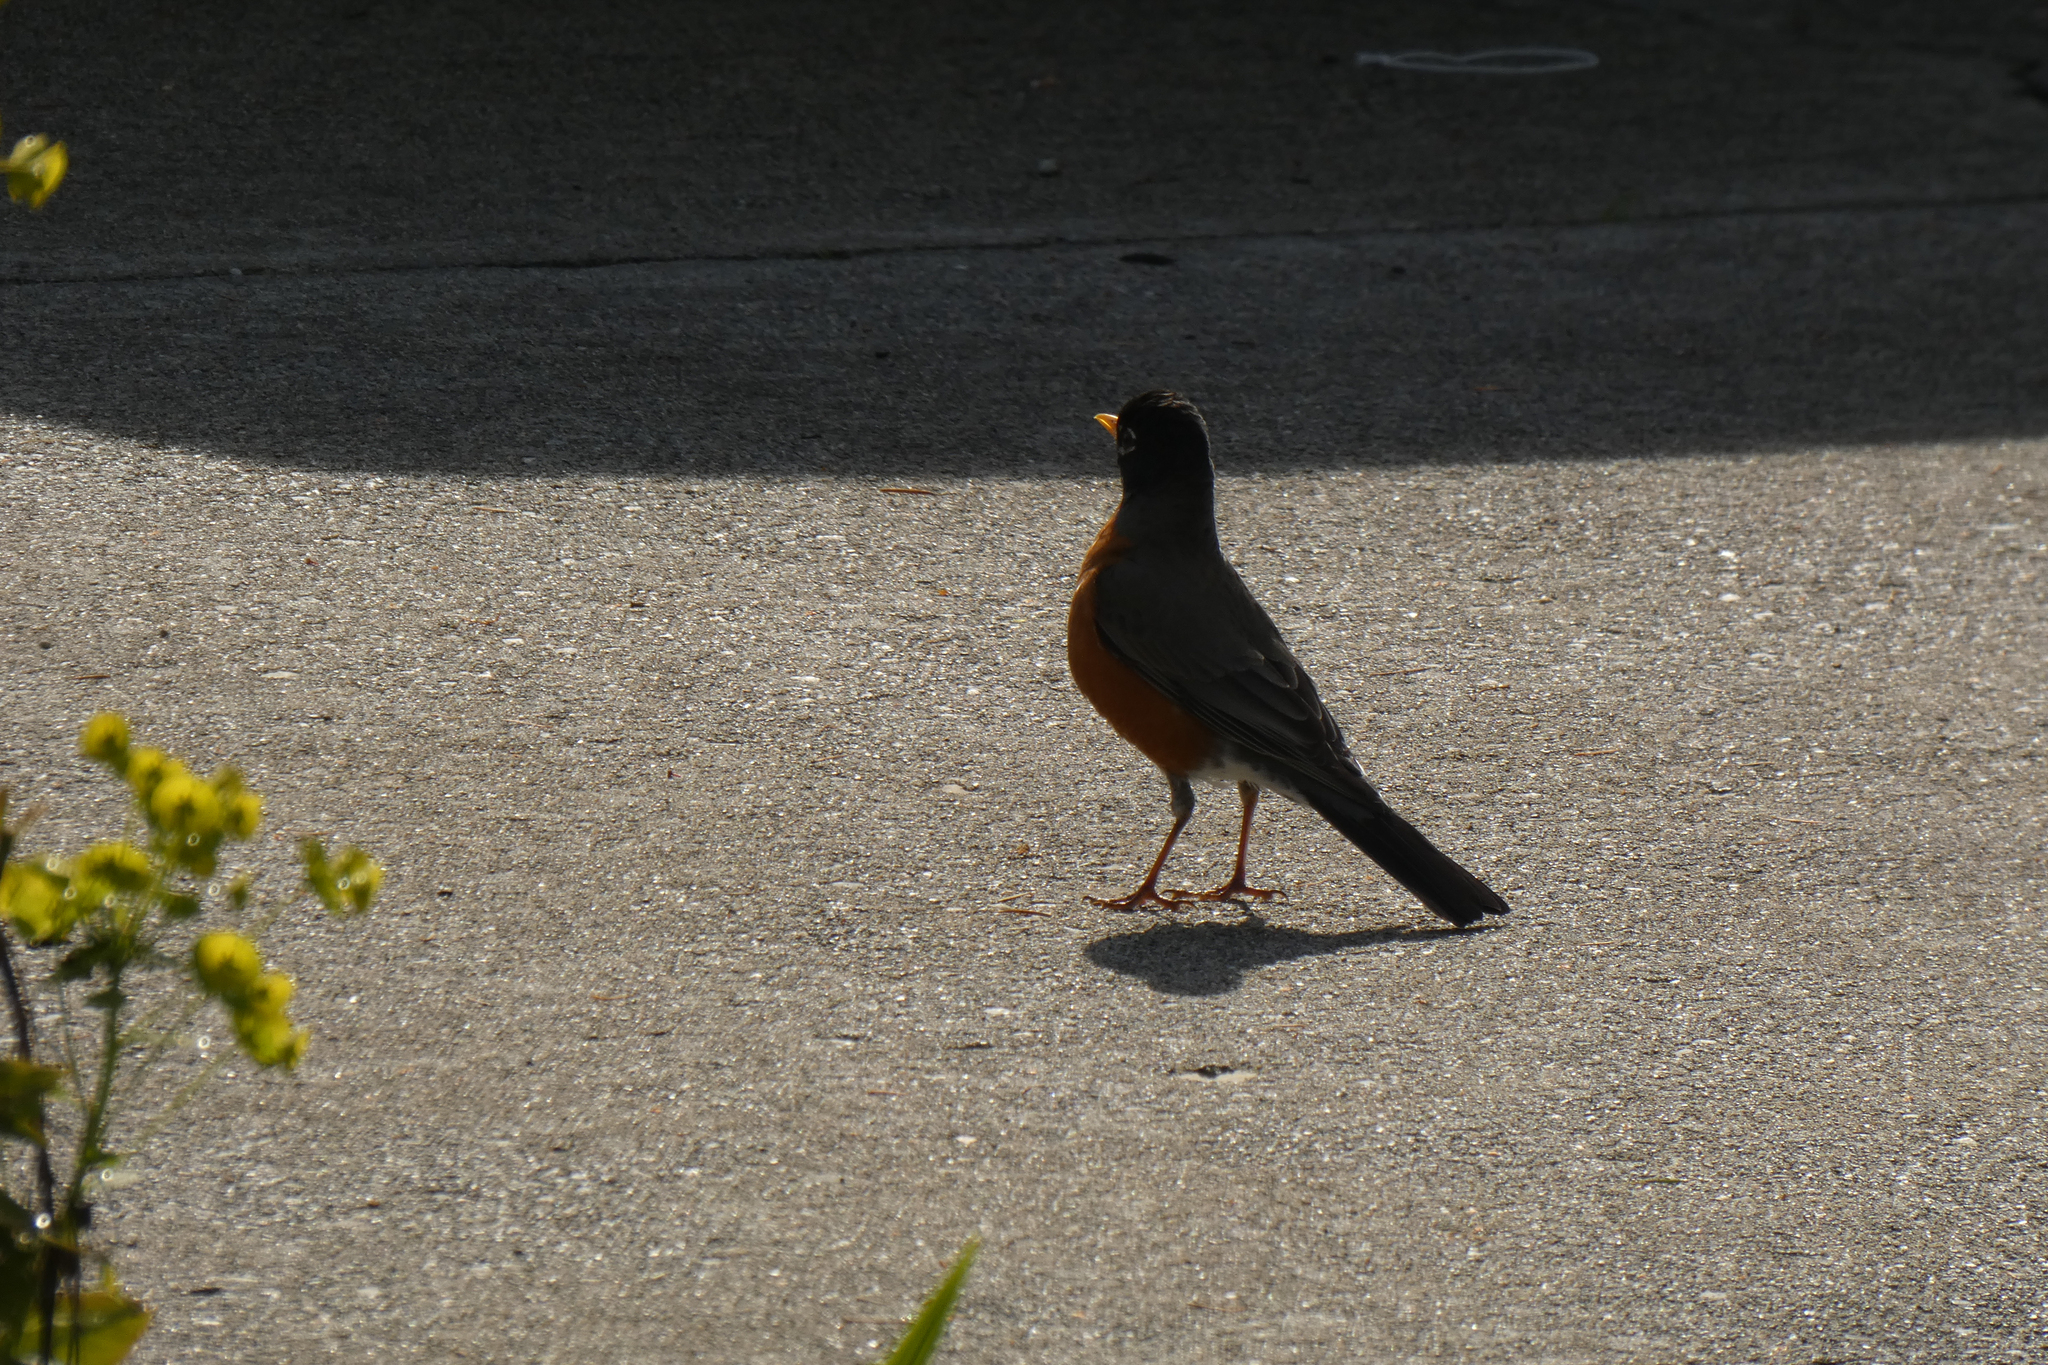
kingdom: Animalia
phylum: Chordata
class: Aves
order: Passeriformes
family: Turdidae
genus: Turdus
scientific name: Turdus migratorius
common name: American robin
